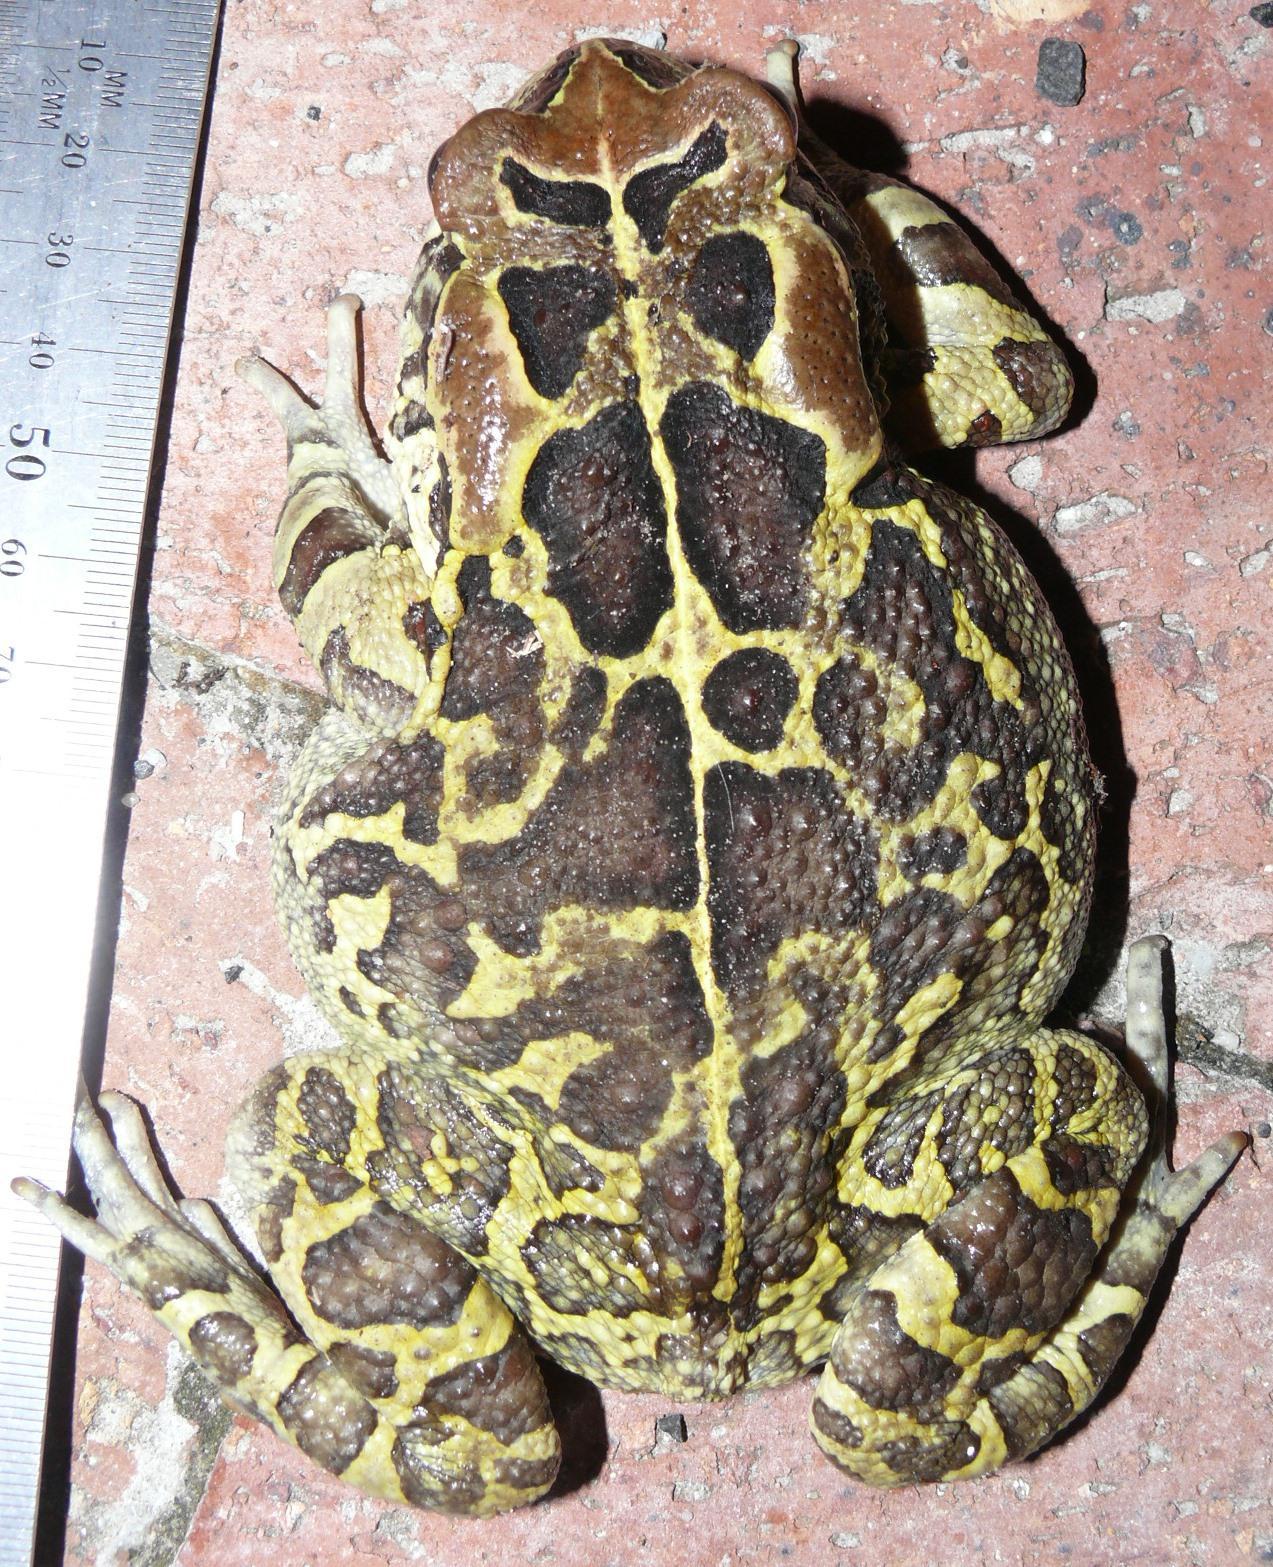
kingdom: Animalia
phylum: Chordata
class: Amphibia
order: Anura
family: Bufonidae
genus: Sclerophrys
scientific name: Sclerophrys pantherina
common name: Panther toad
